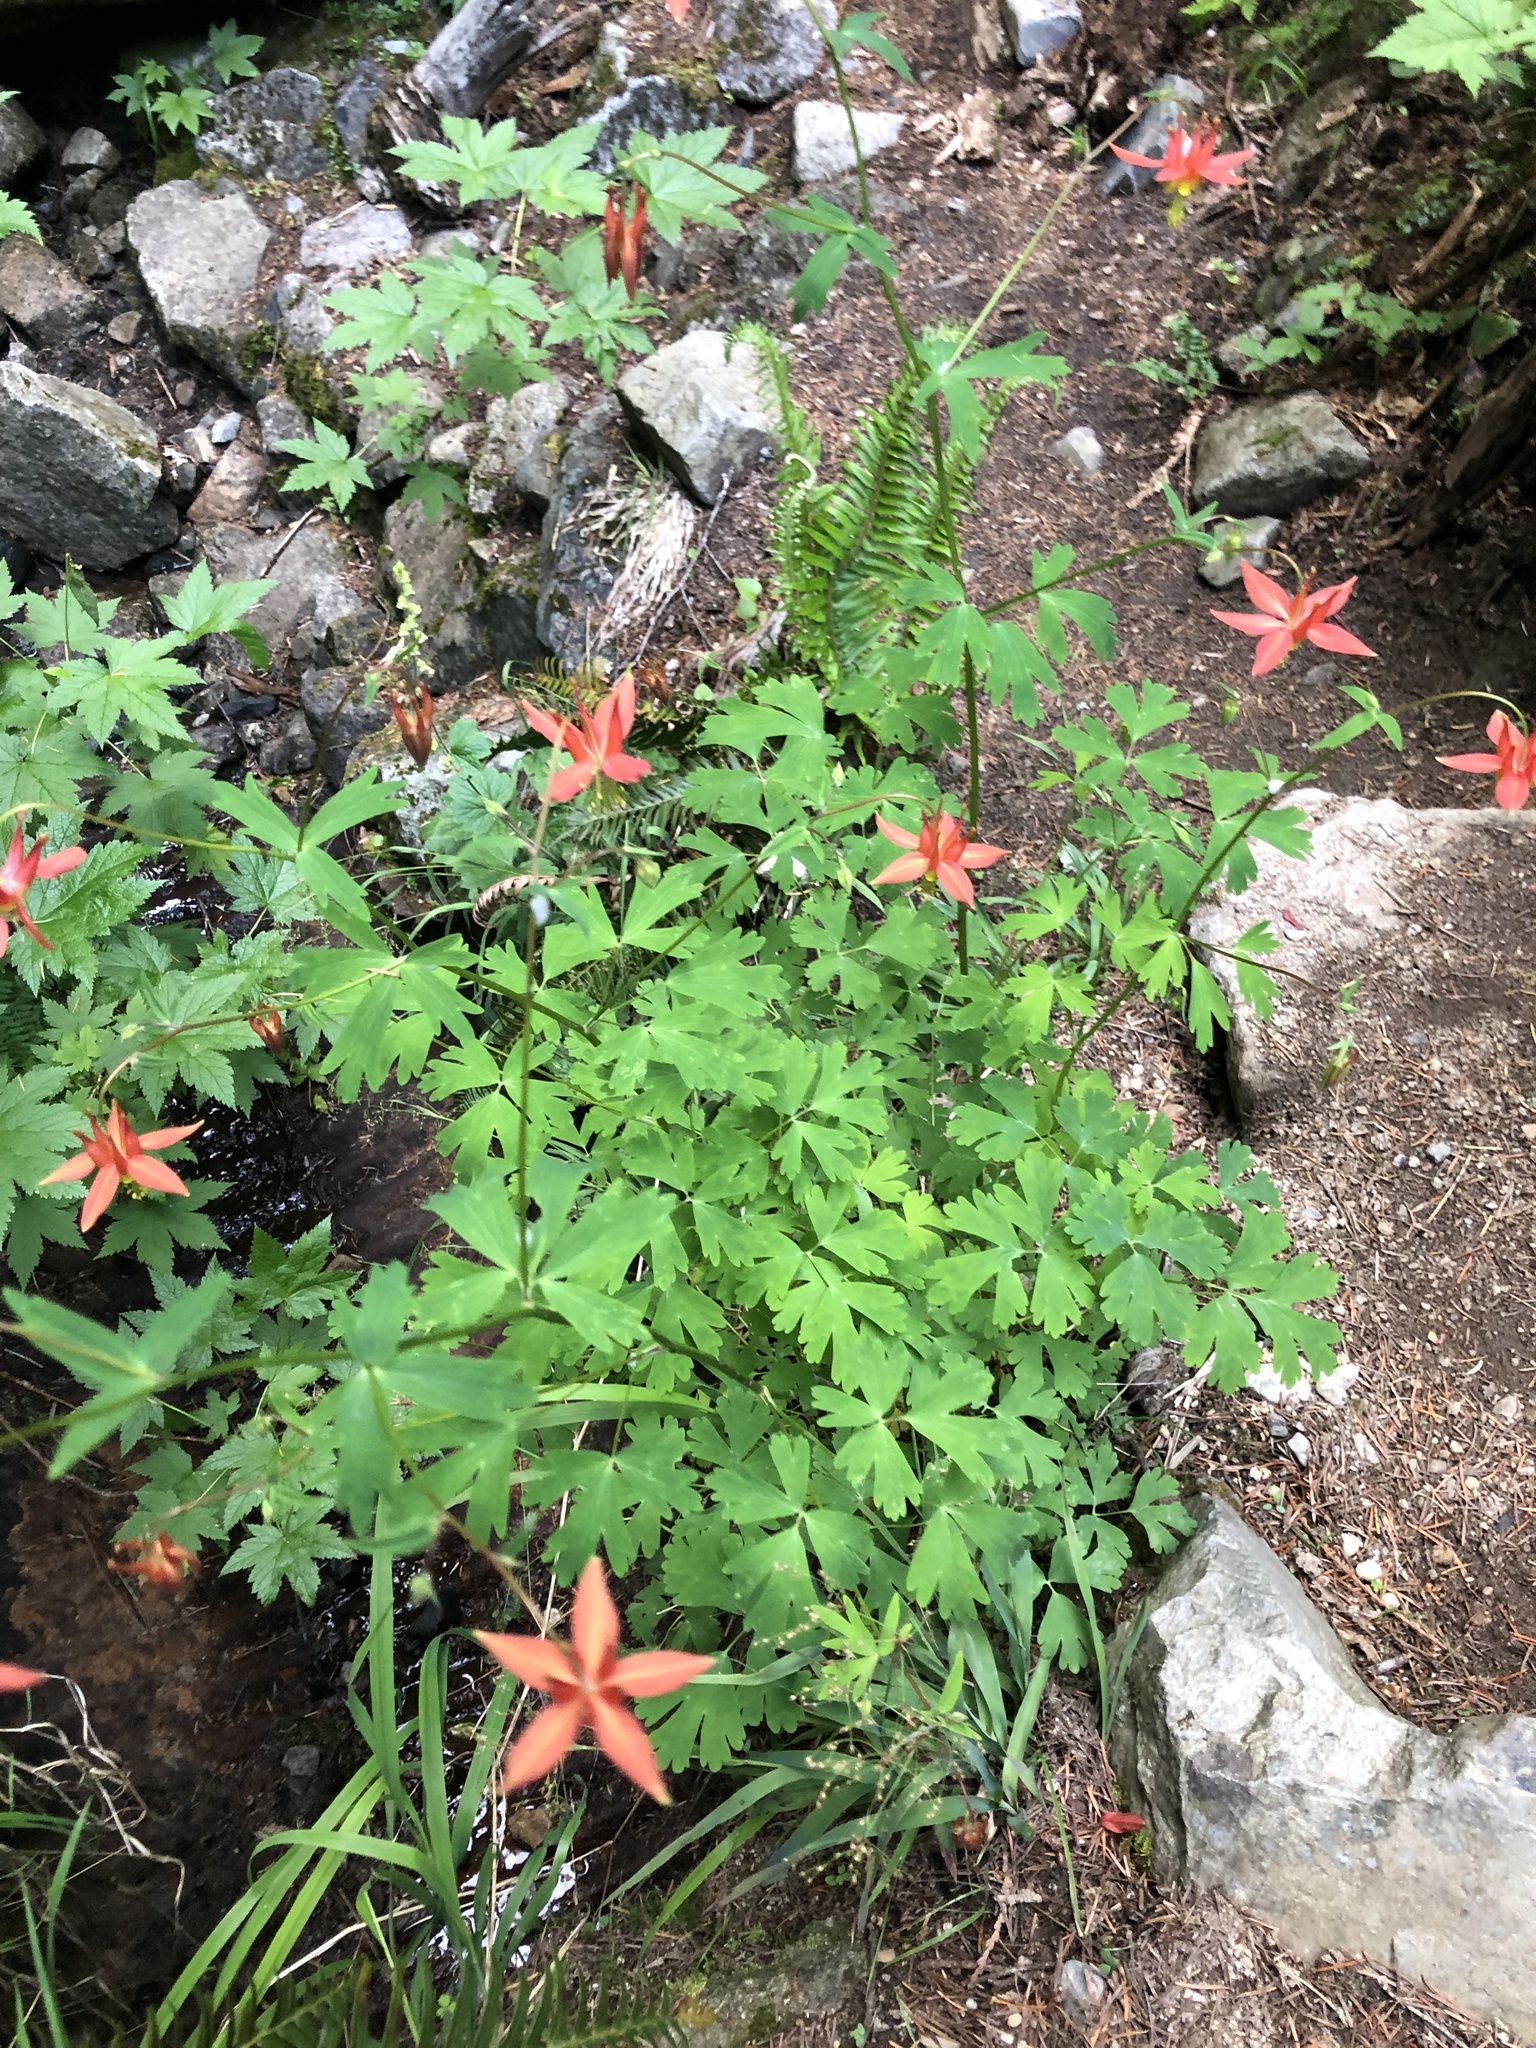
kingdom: Plantae
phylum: Tracheophyta
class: Magnoliopsida
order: Ranunculales
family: Ranunculaceae
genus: Aquilegia
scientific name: Aquilegia formosa
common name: Sitka columbine
